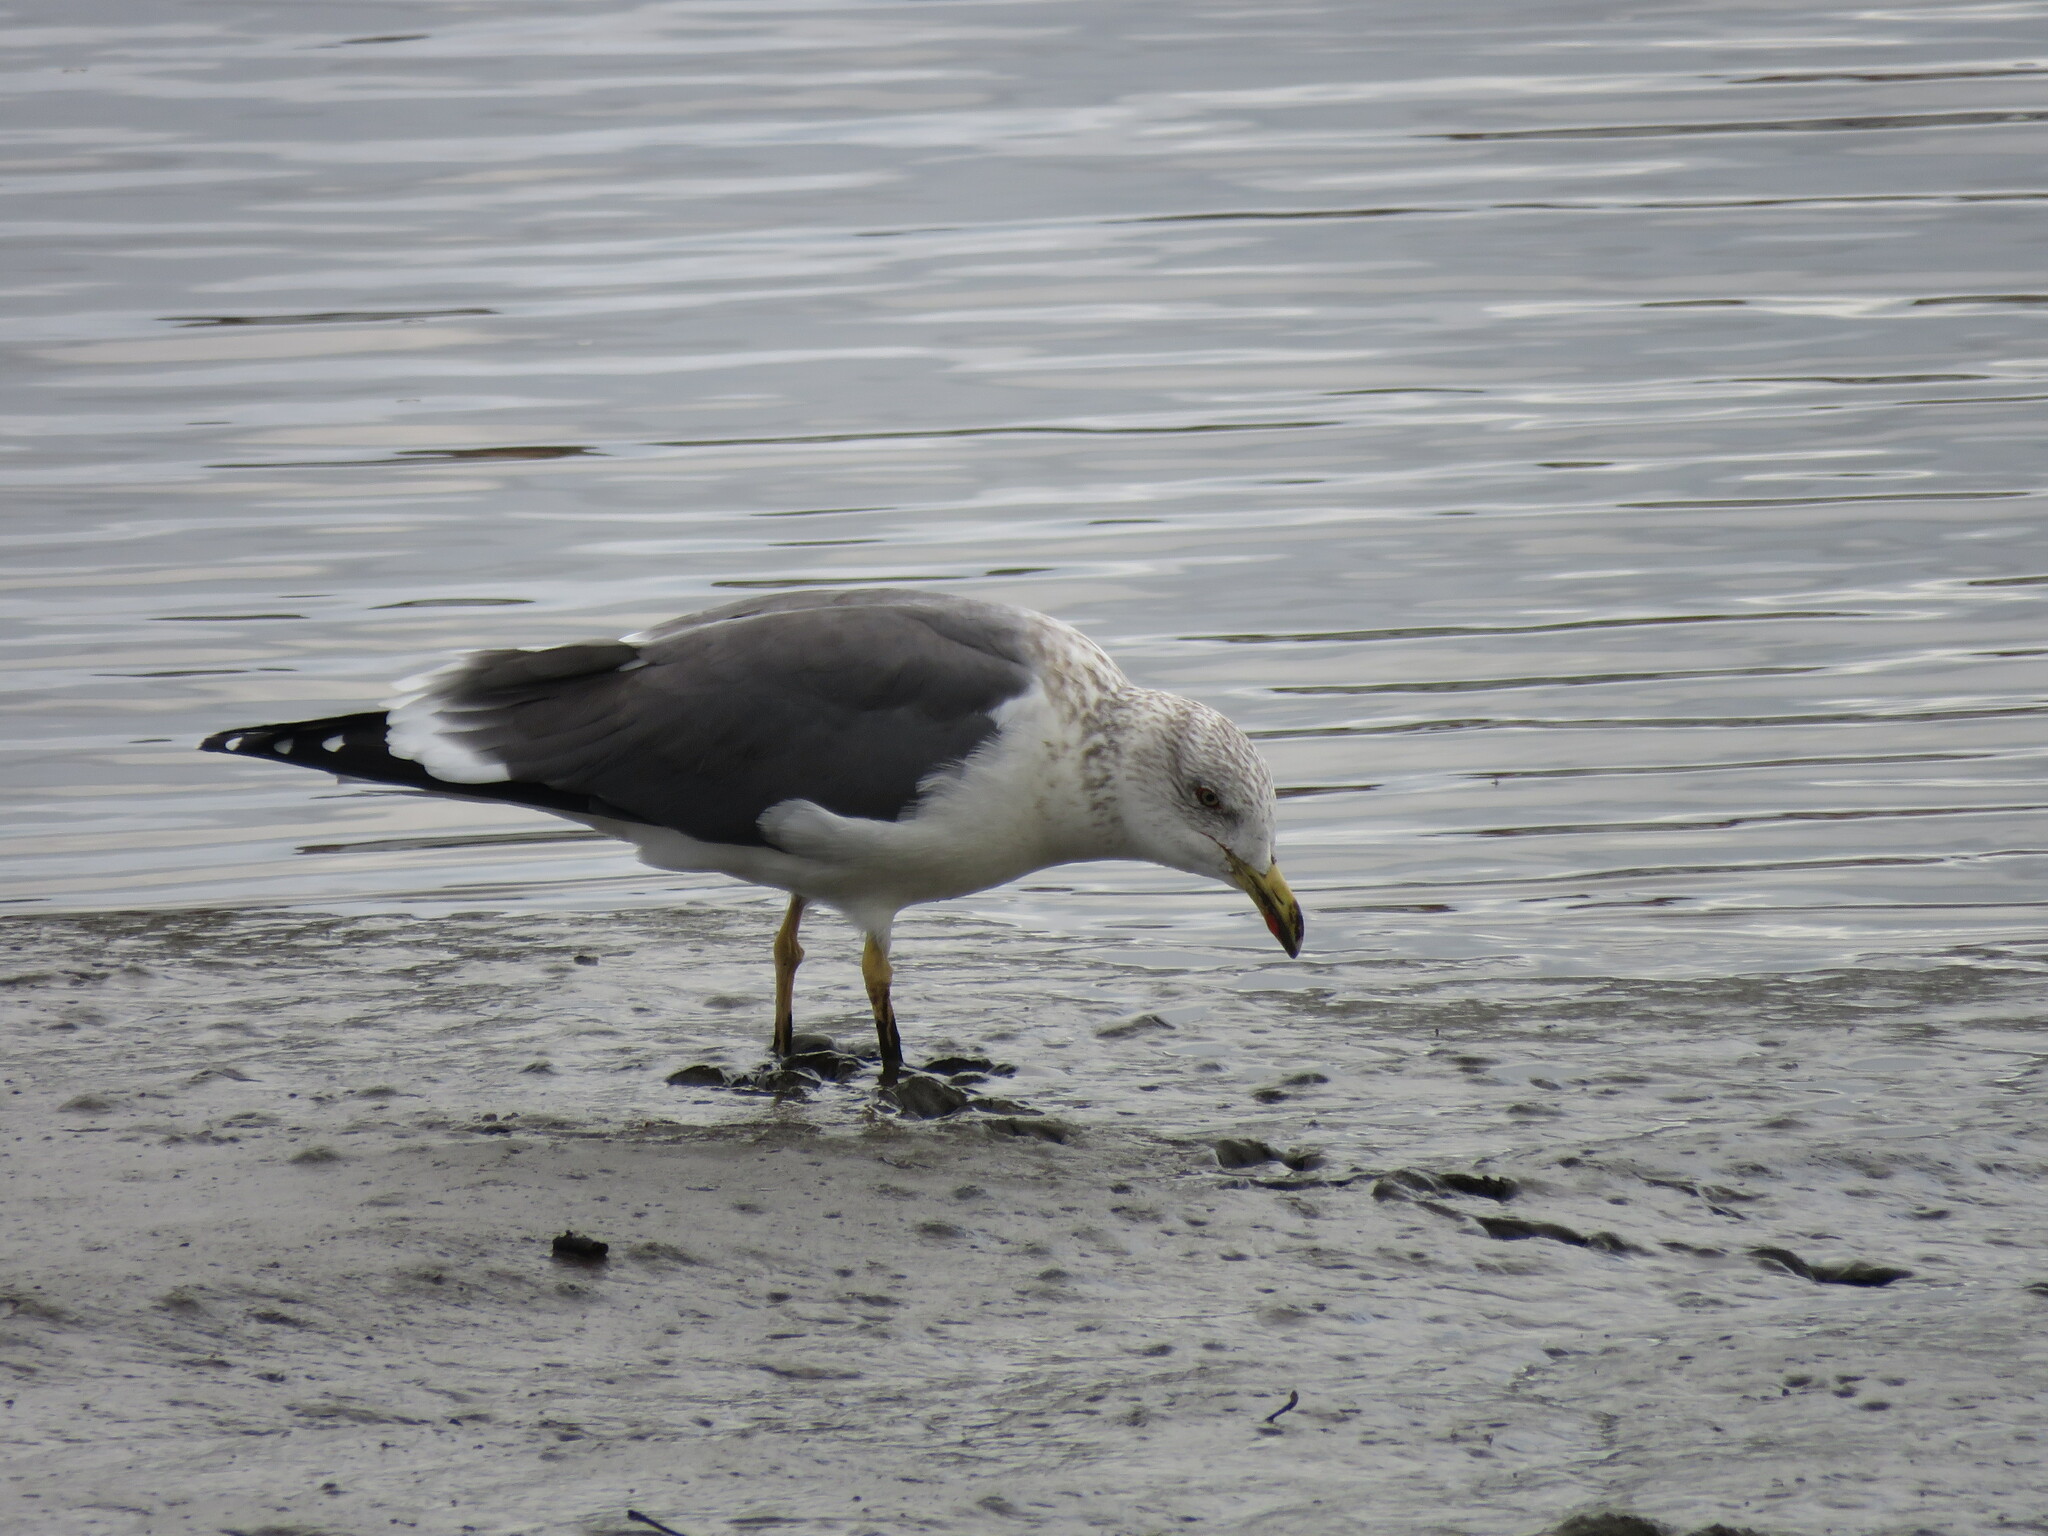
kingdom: Animalia
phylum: Chordata
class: Aves
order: Charadriiformes
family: Laridae
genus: Larus
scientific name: Larus fuscus
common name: Lesser black-backed gull
